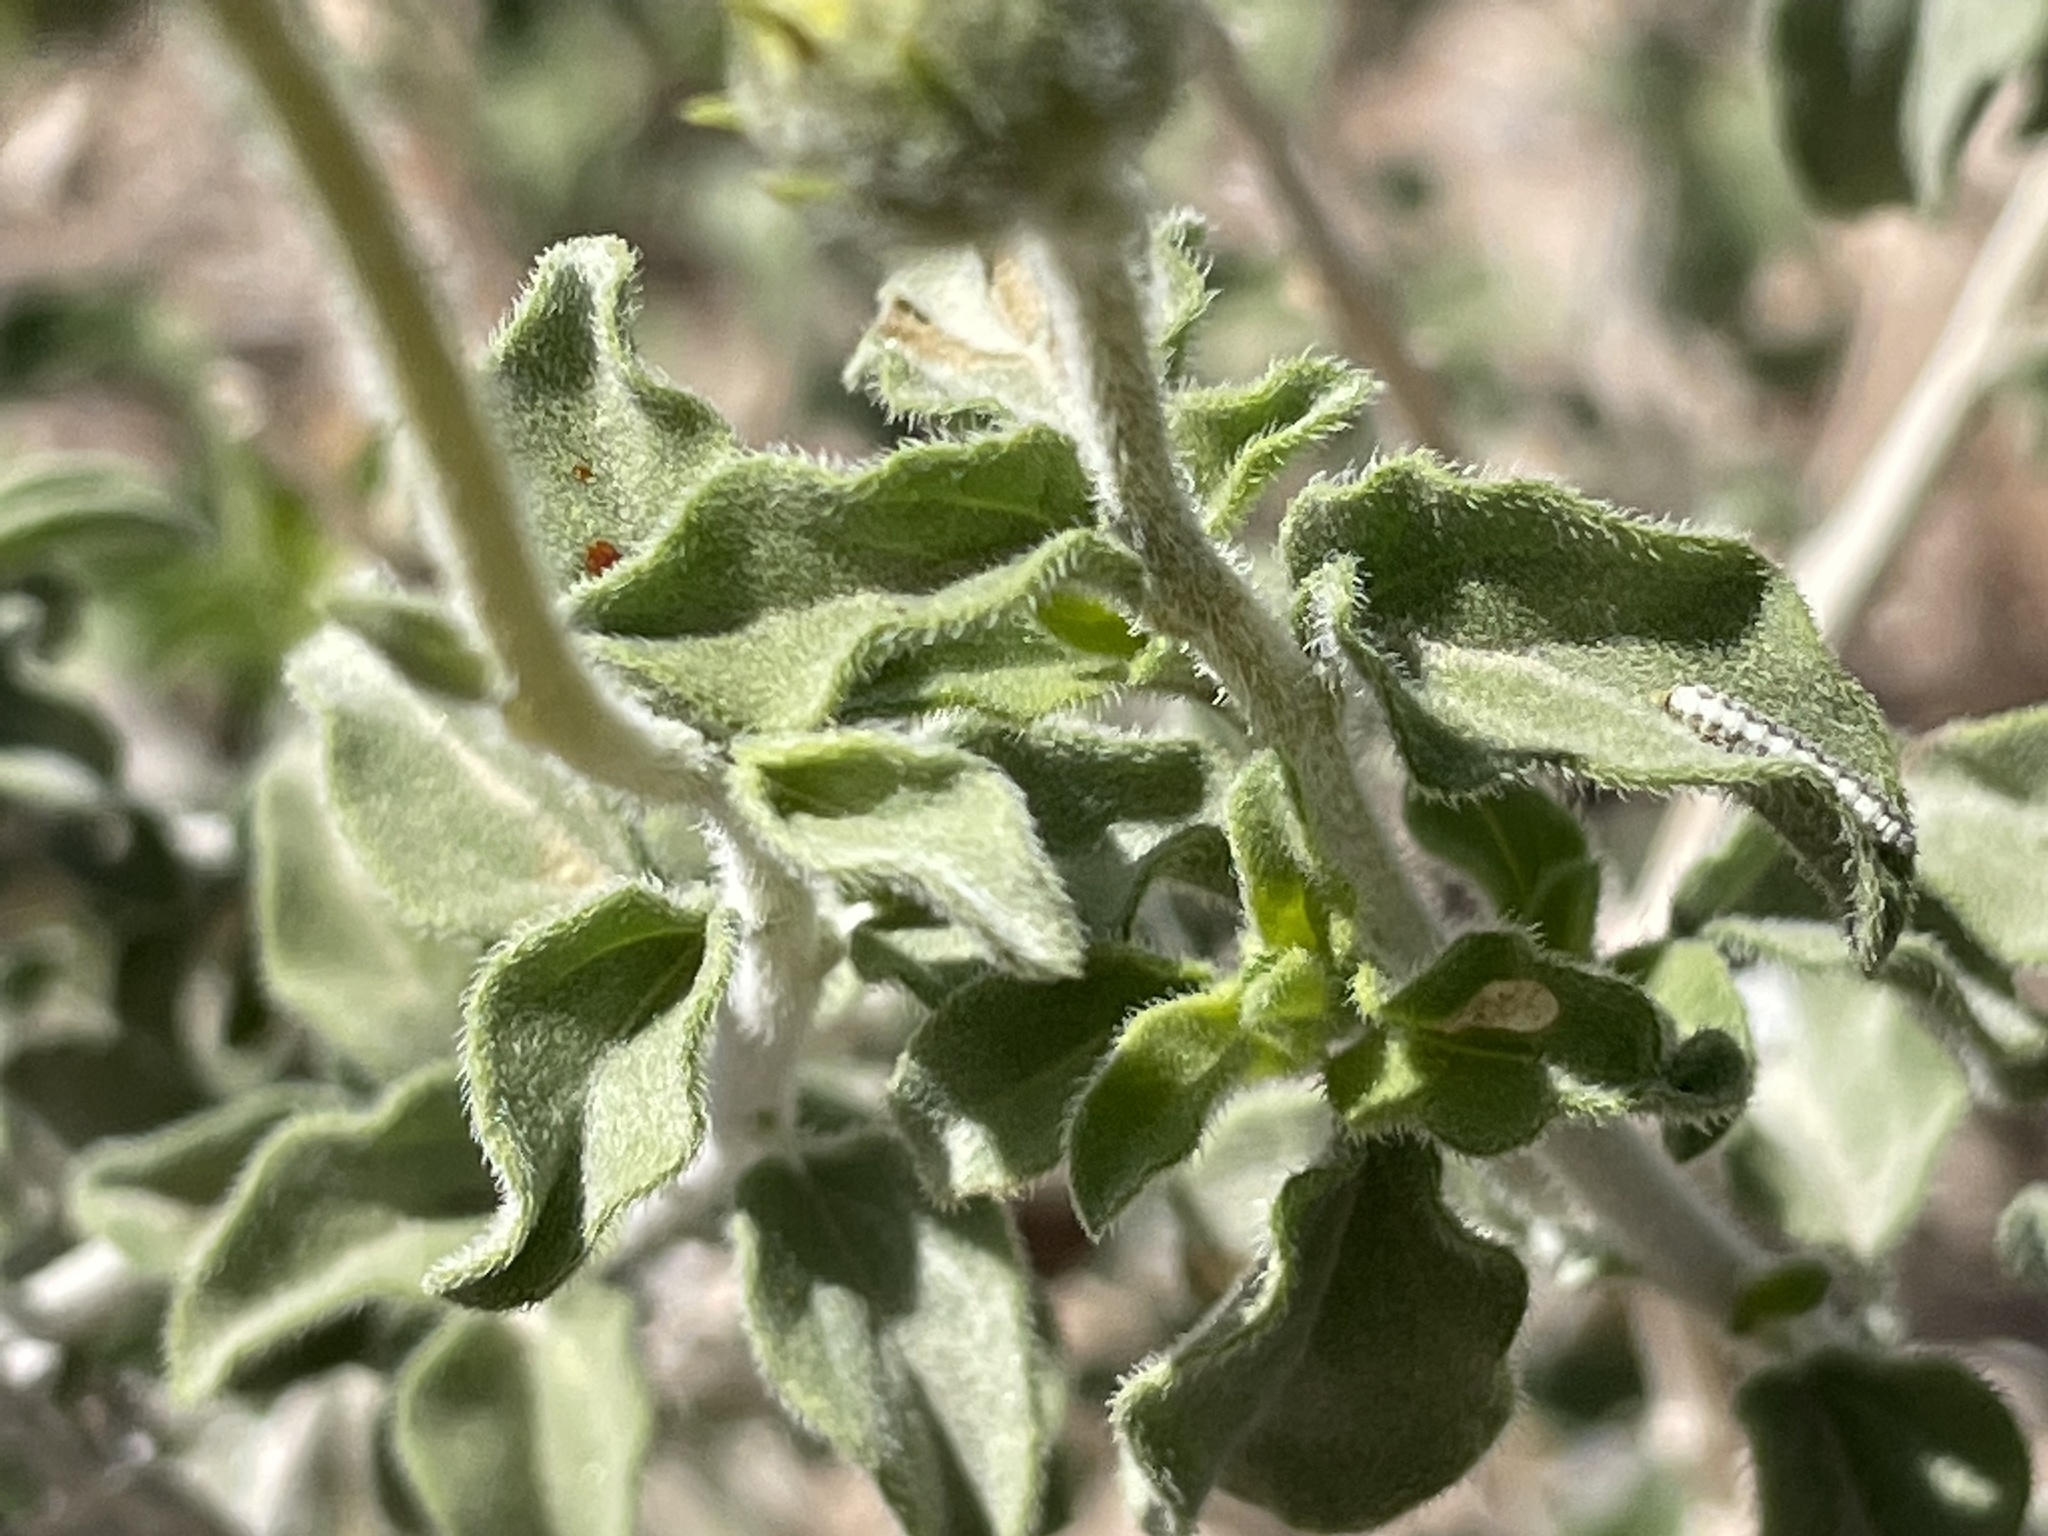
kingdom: Plantae
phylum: Tracheophyta
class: Magnoliopsida
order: Asterales
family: Asteraceae
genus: Encelia
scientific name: Encelia virginensis
